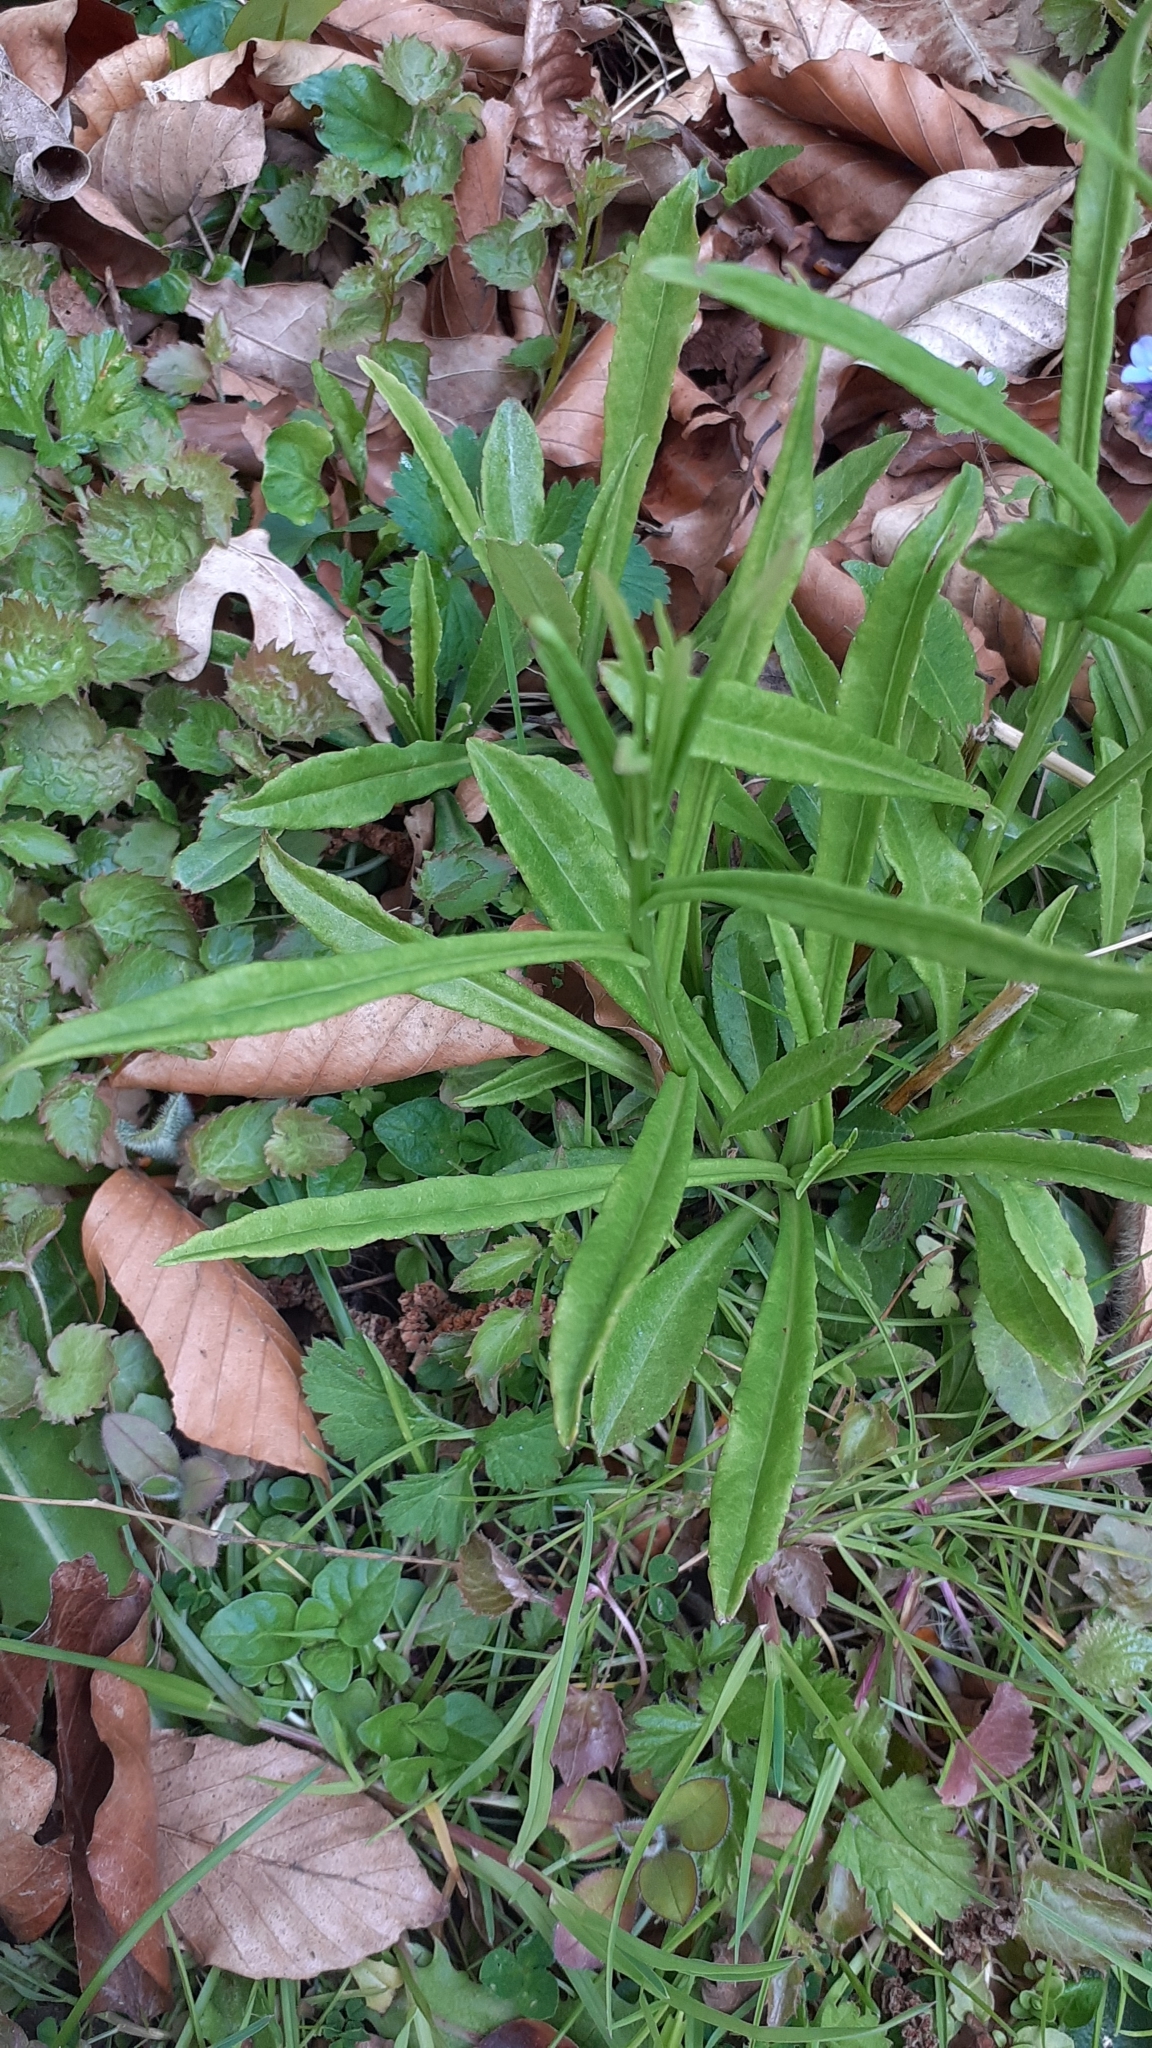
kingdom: Plantae
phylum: Tracheophyta
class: Magnoliopsida
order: Asterales
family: Campanulaceae
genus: Campanula
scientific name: Campanula persicifolia
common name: Peach-leaved bellflower
